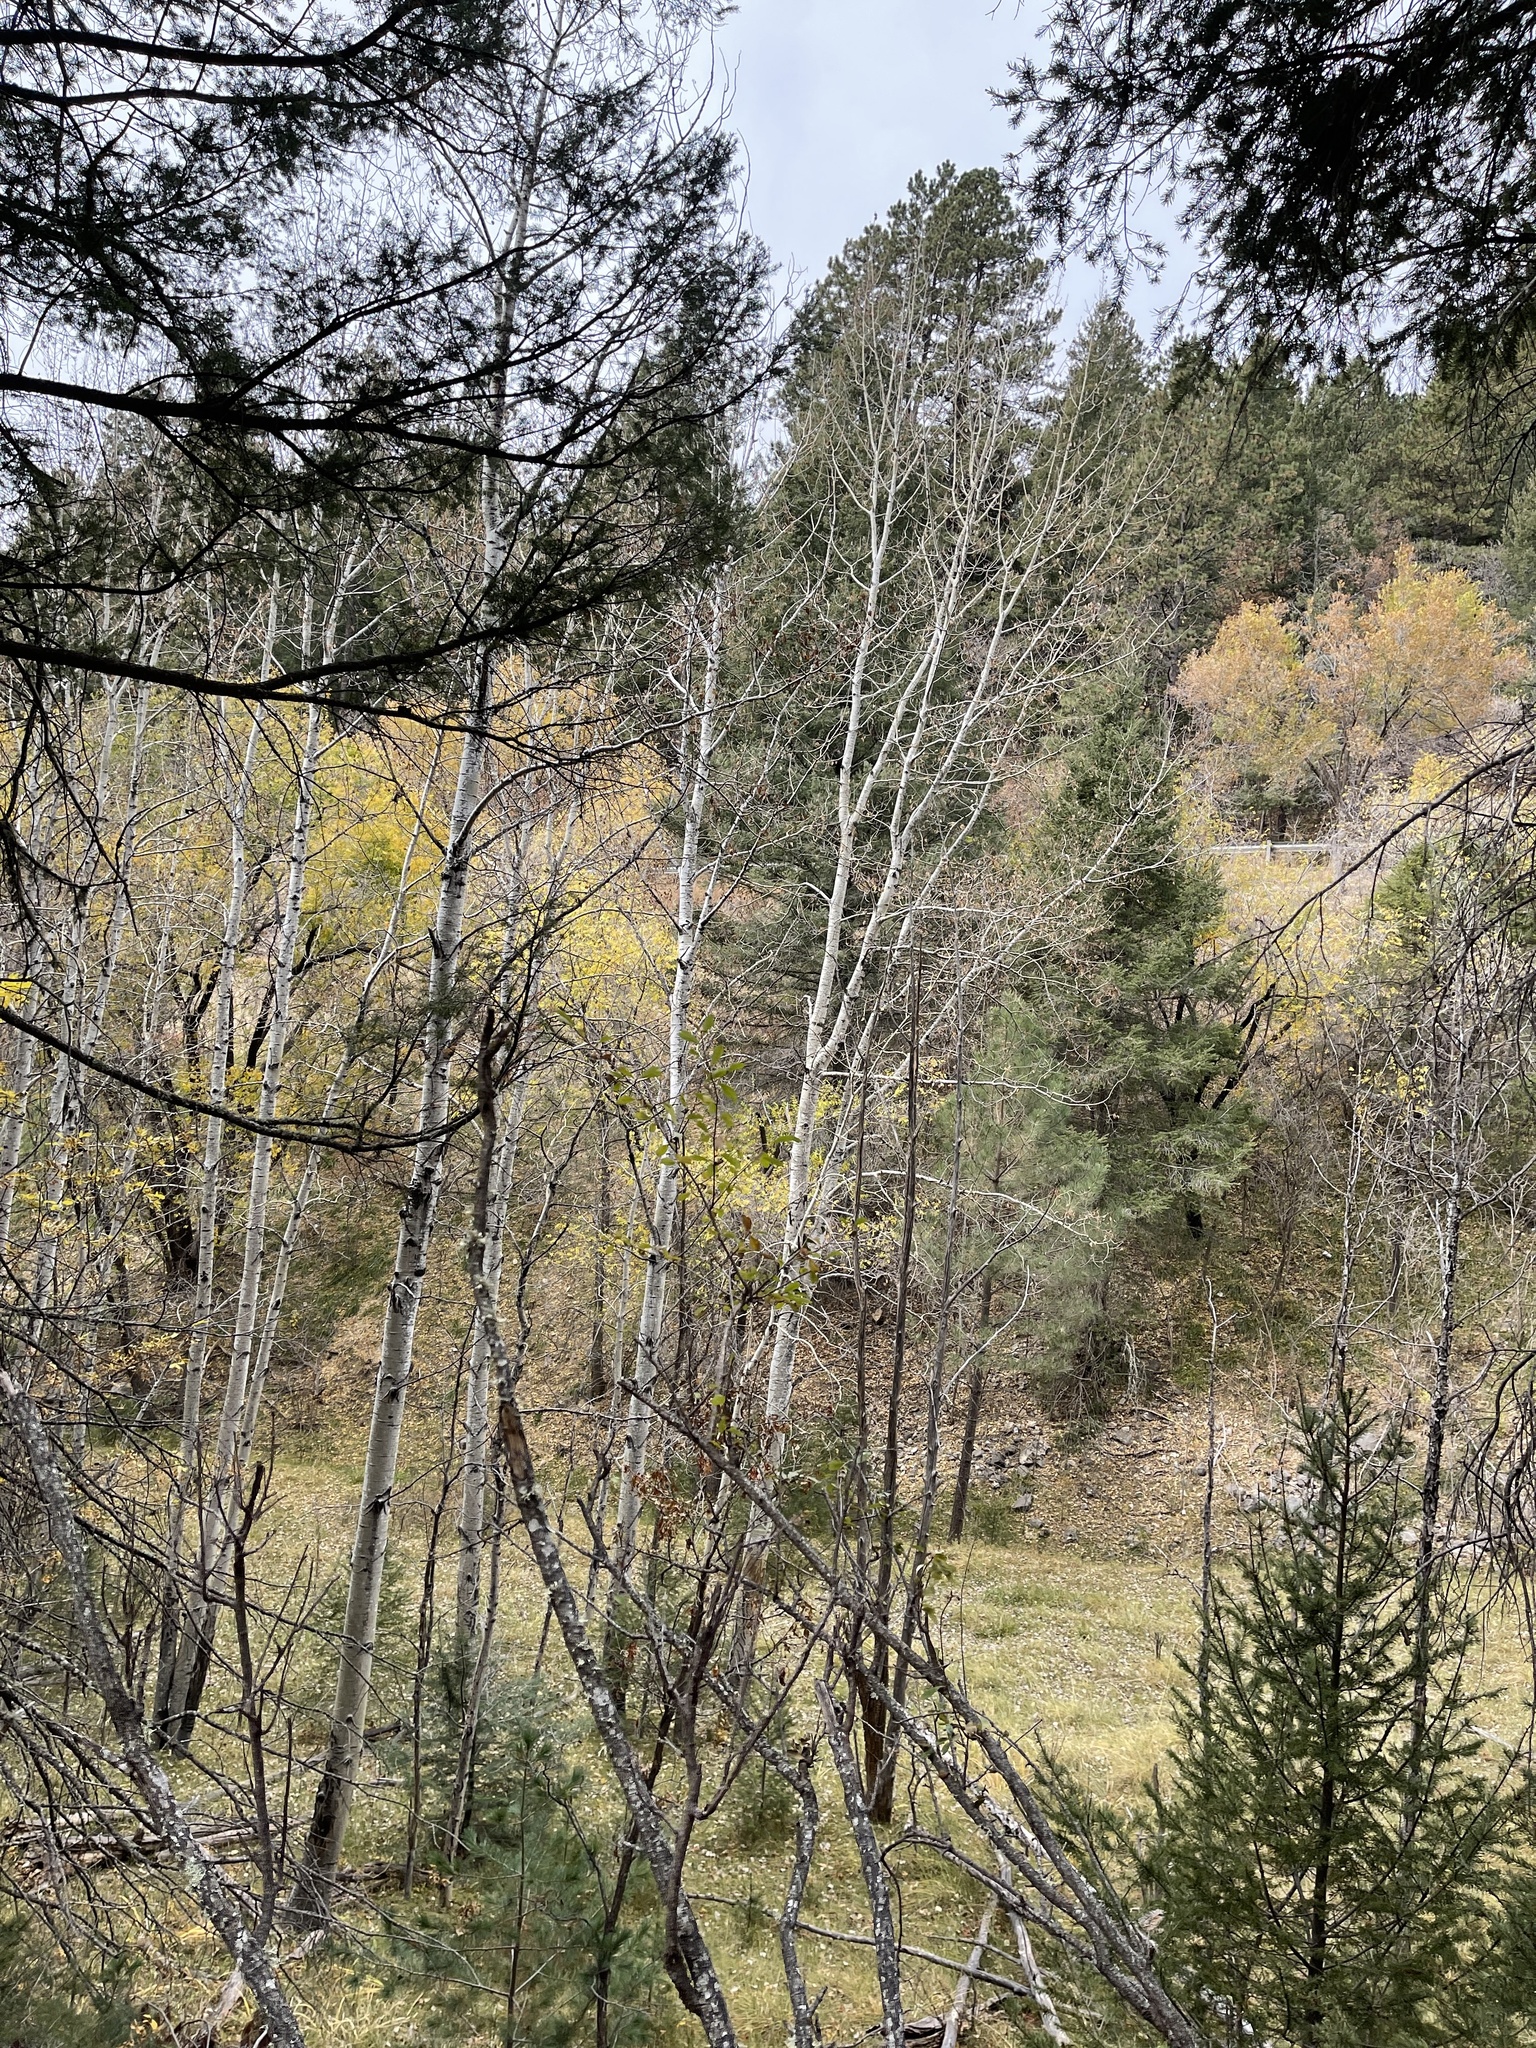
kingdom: Plantae
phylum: Tracheophyta
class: Magnoliopsida
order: Malpighiales
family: Salicaceae
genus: Populus
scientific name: Populus tremuloides
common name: Quaking aspen
